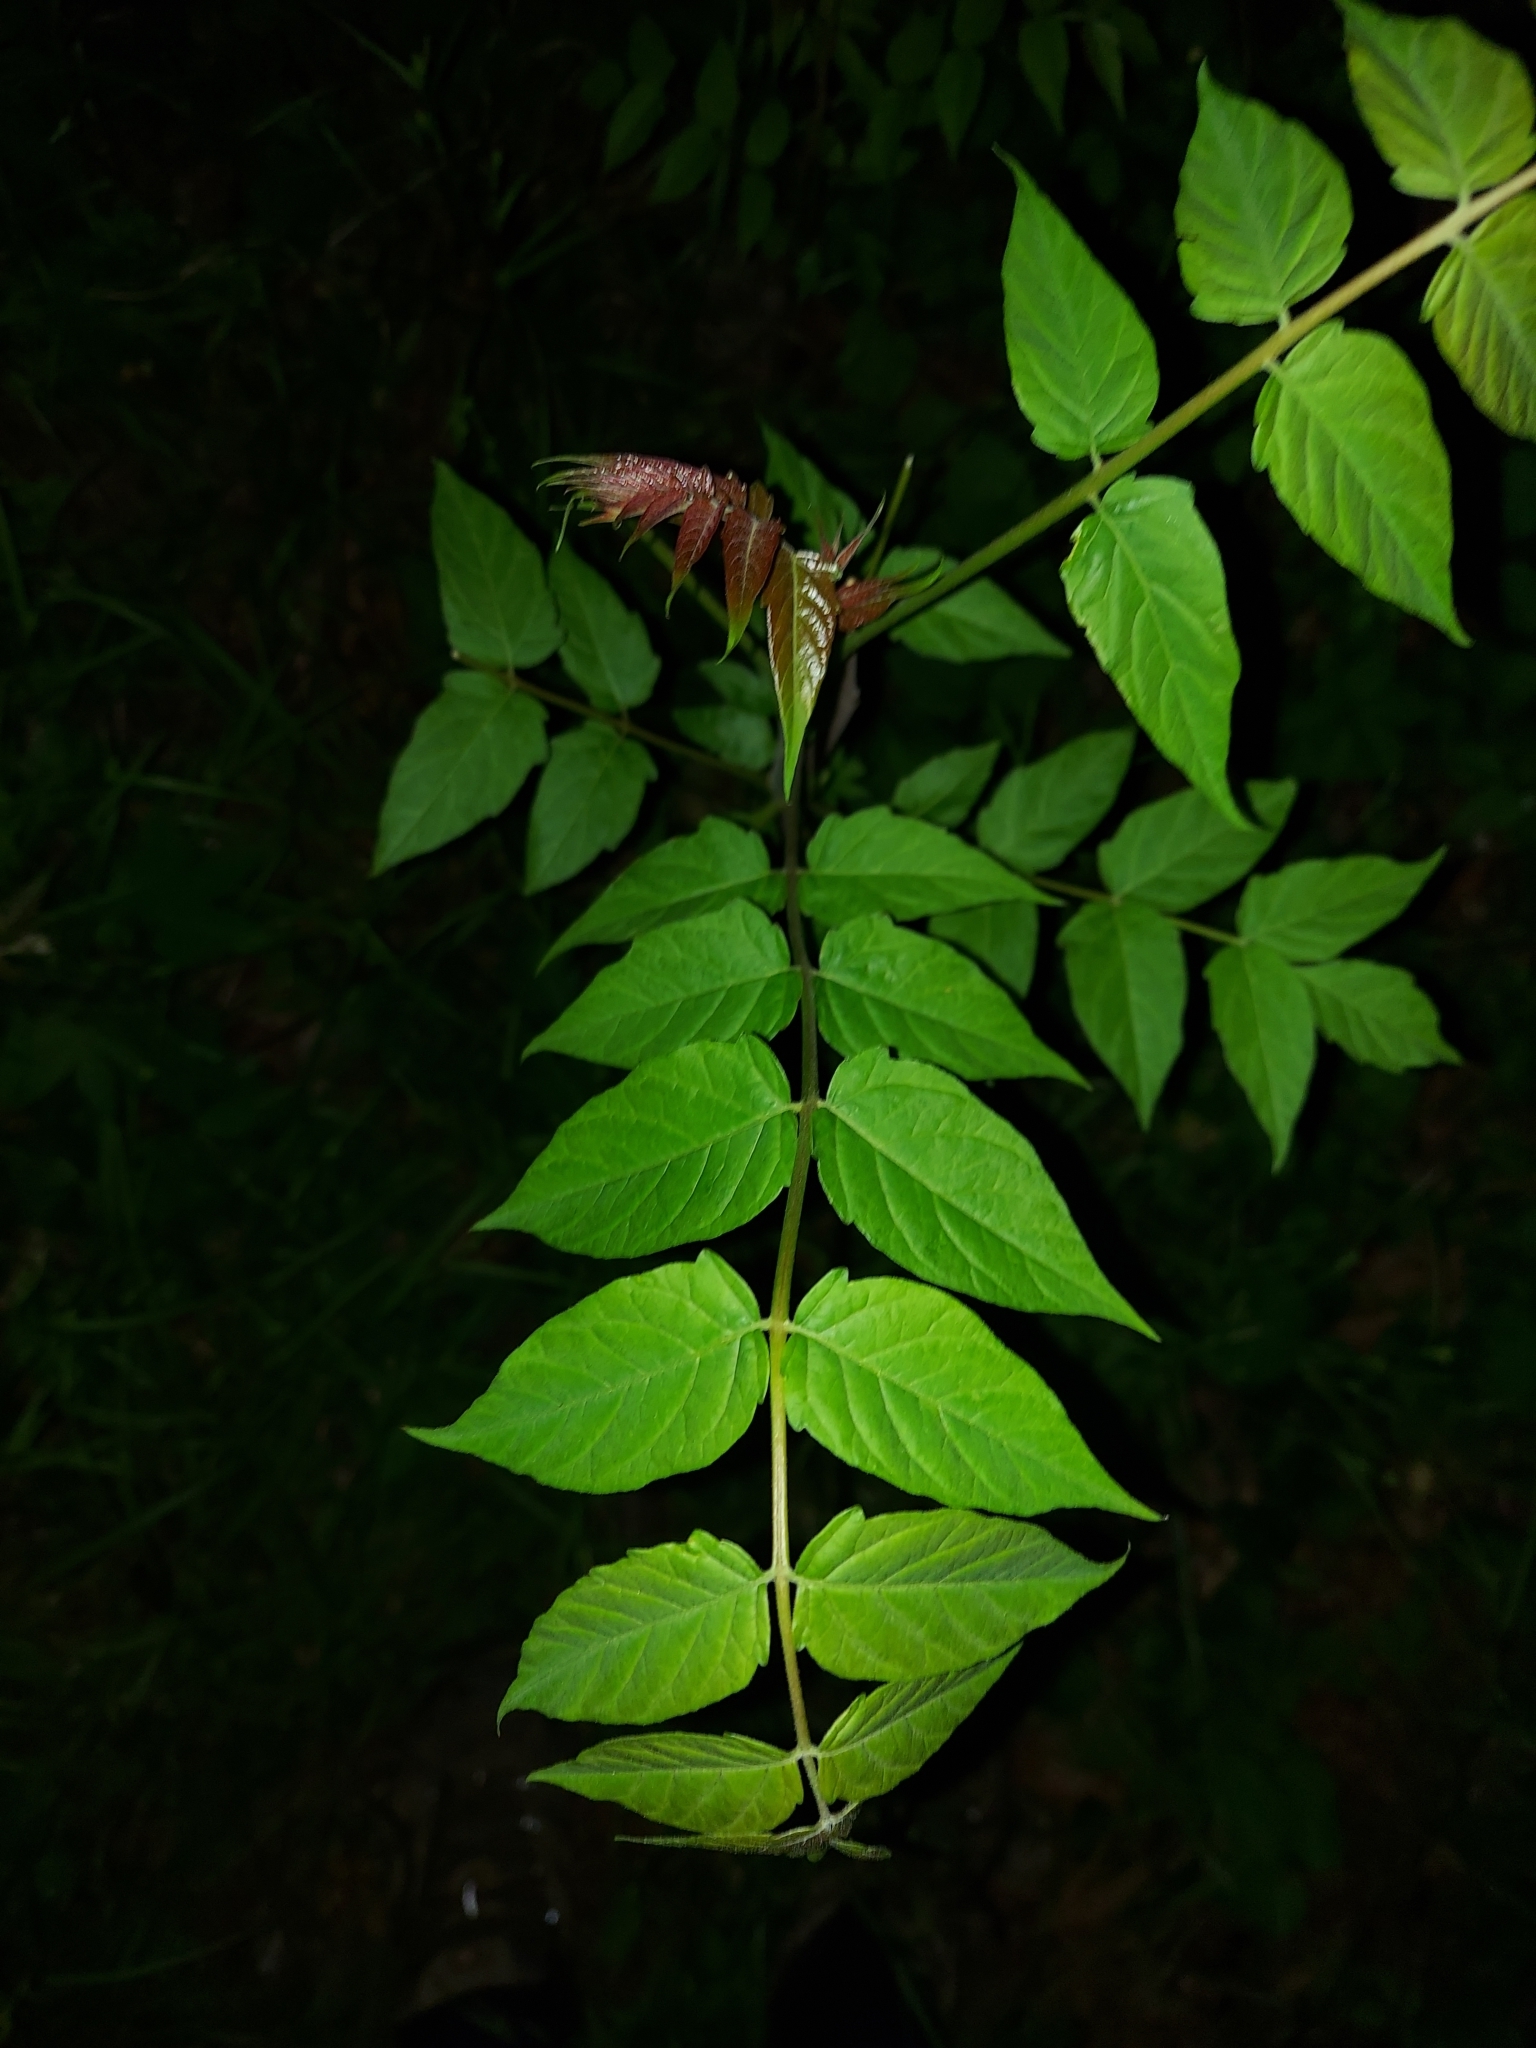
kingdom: Plantae
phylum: Tracheophyta
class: Magnoliopsida
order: Sapindales
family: Simaroubaceae
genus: Ailanthus
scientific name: Ailanthus altissima
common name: Tree-of-heaven
